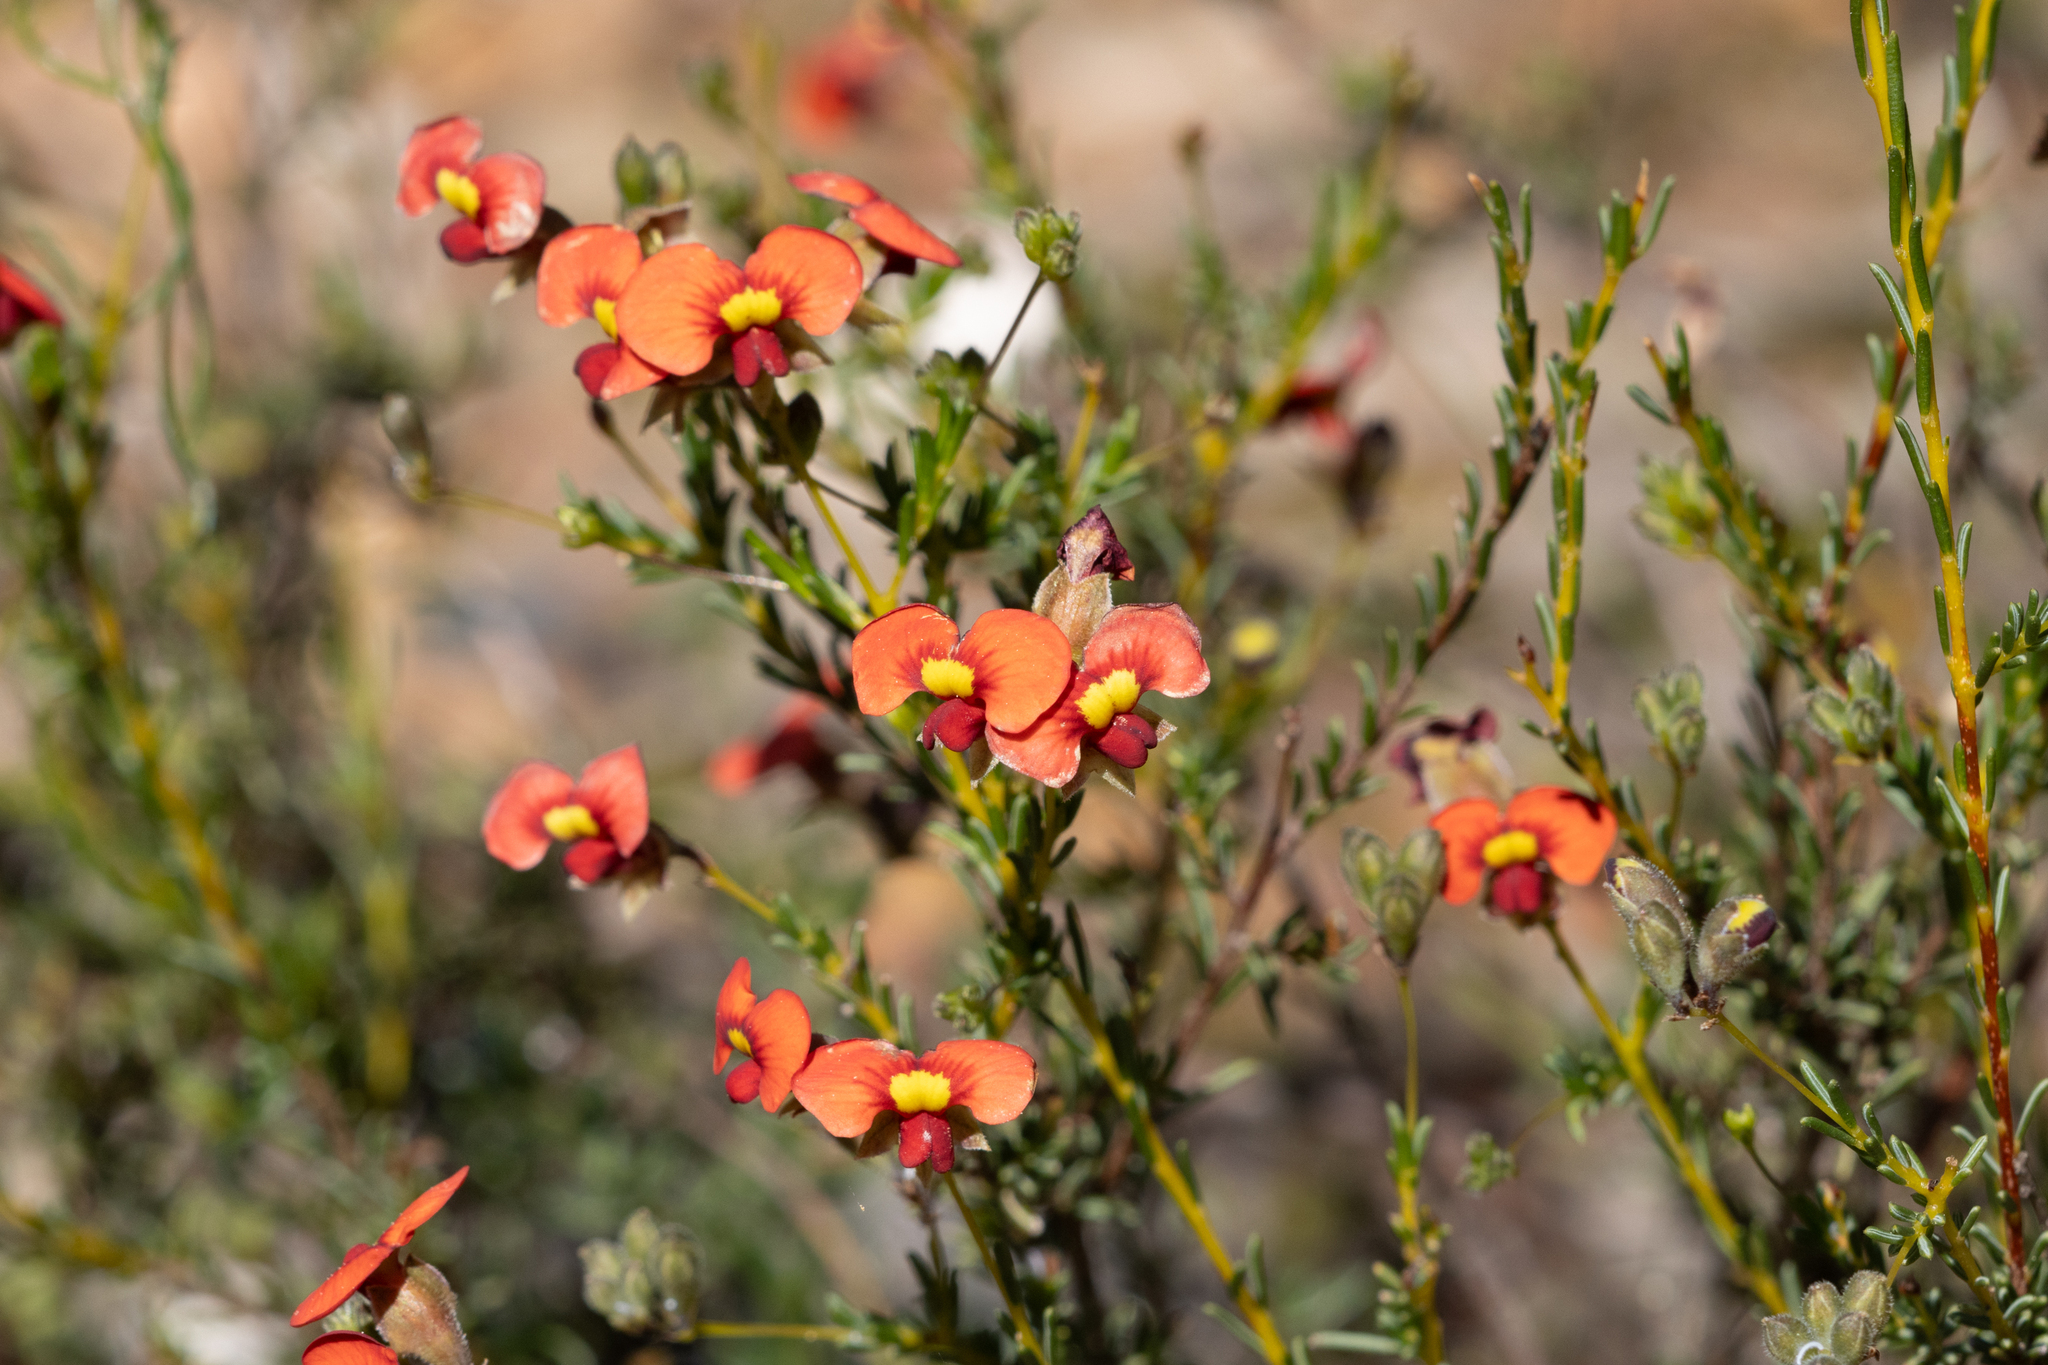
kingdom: Plantae
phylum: Tracheophyta
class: Magnoliopsida
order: Fabales
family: Fabaceae
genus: Dillwynia
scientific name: Dillwynia hispida
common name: Red parrot-pea
